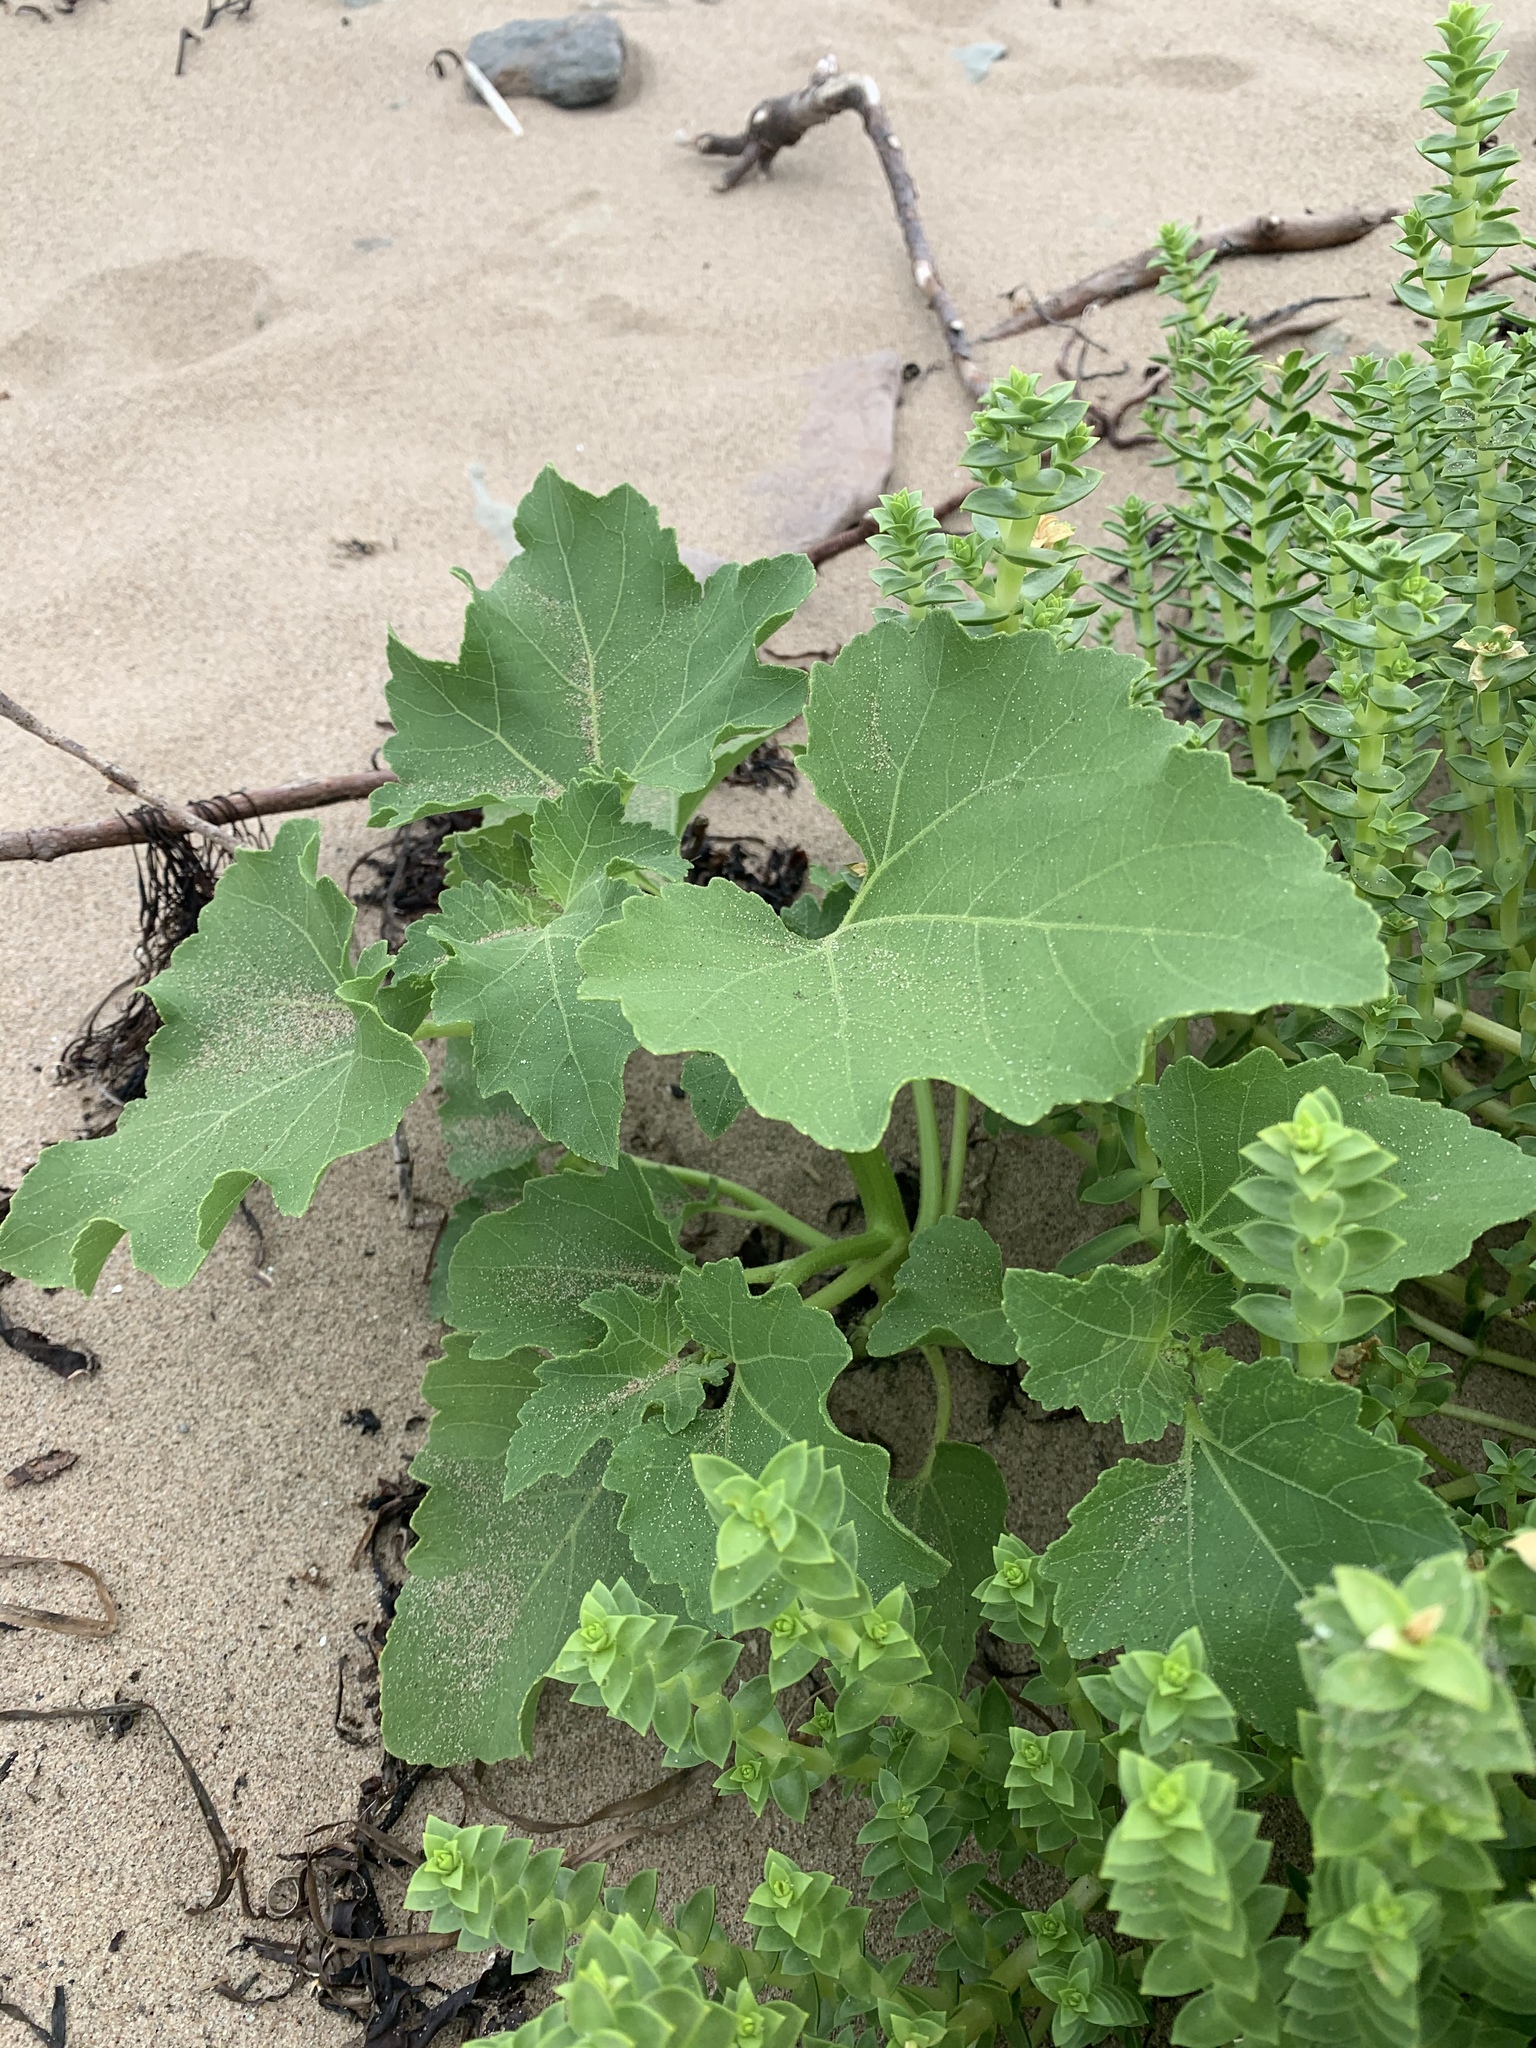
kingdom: Plantae
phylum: Tracheophyta
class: Magnoliopsida
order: Asterales
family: Asteraceae
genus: Xanthium
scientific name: Xanthium strumarium
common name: Rough cocklebur
